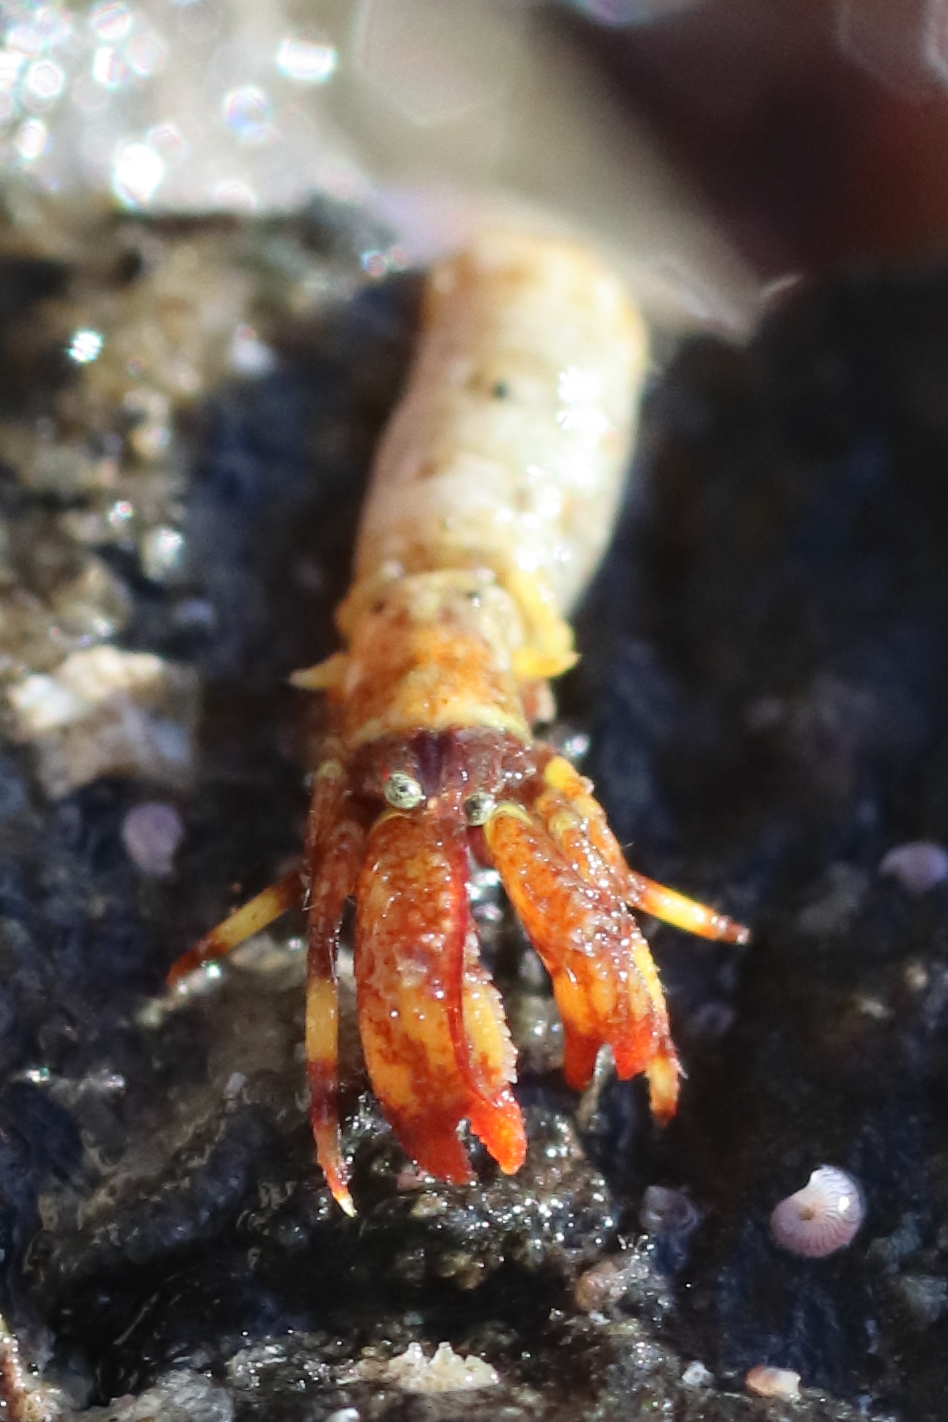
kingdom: Animalia
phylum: Arthropoda
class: Malacostraca
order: Decapoda
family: Paguridae
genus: Discorsopagurus
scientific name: Discorsopagurus schmitti
